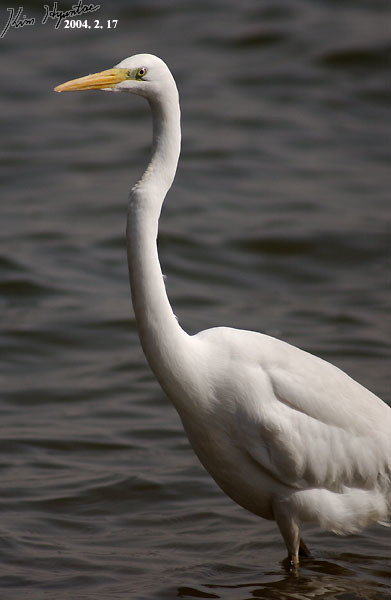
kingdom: Animalia
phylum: Chordata
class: Aves
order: Pelecaniformes
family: Ardeidae
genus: Ardea
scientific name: Ardea alba
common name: Great egret
